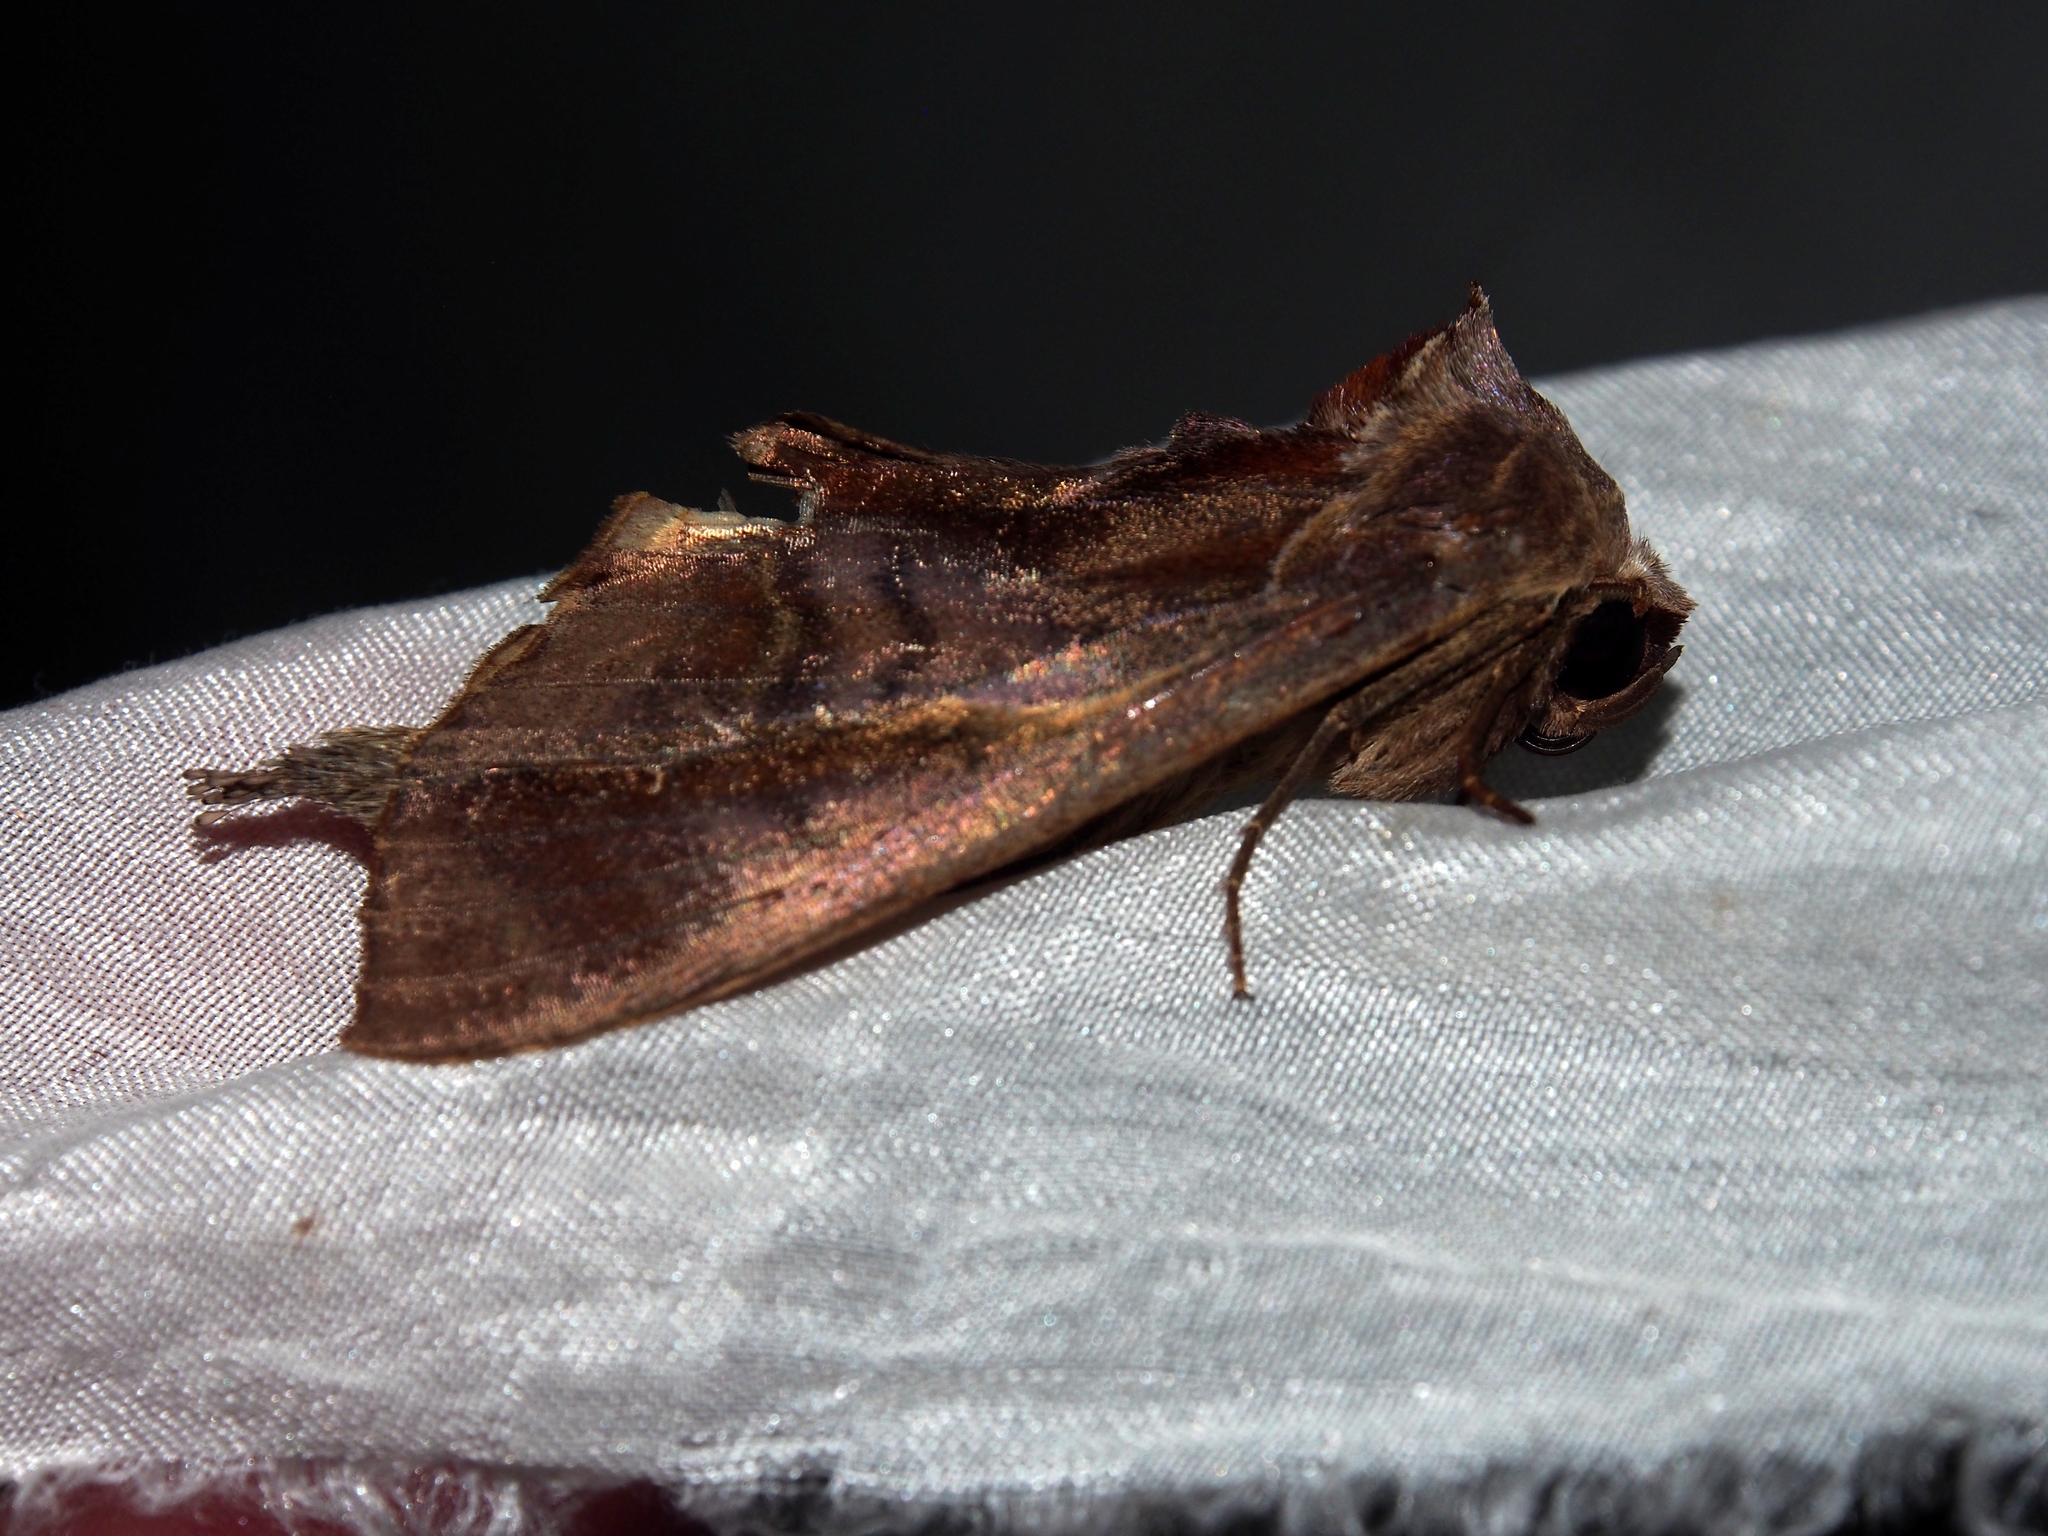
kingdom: Animalia
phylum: Arthropoda
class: Insecta
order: Lepidoptera
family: Notodontidae
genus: Crinodes
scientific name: Crinodes besckei
